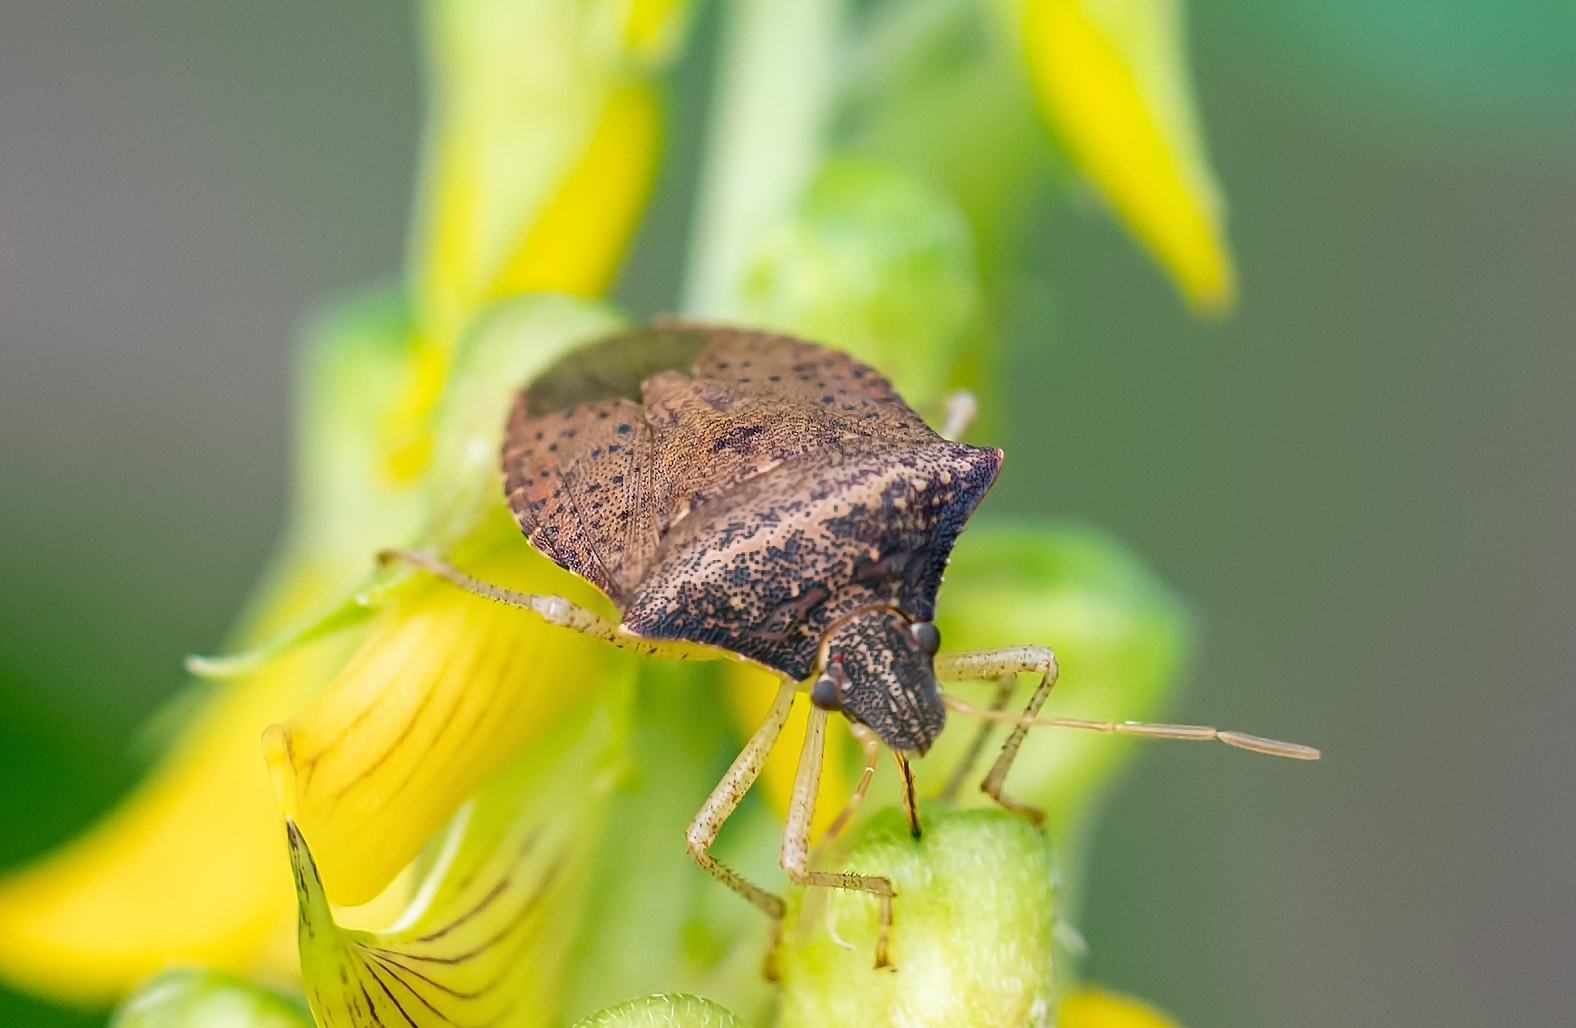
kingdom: Animalia
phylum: Arthropoda
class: Insecta
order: Hemiptera
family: Pentatomidae
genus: Euschistus
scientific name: Euschistus obscurus
